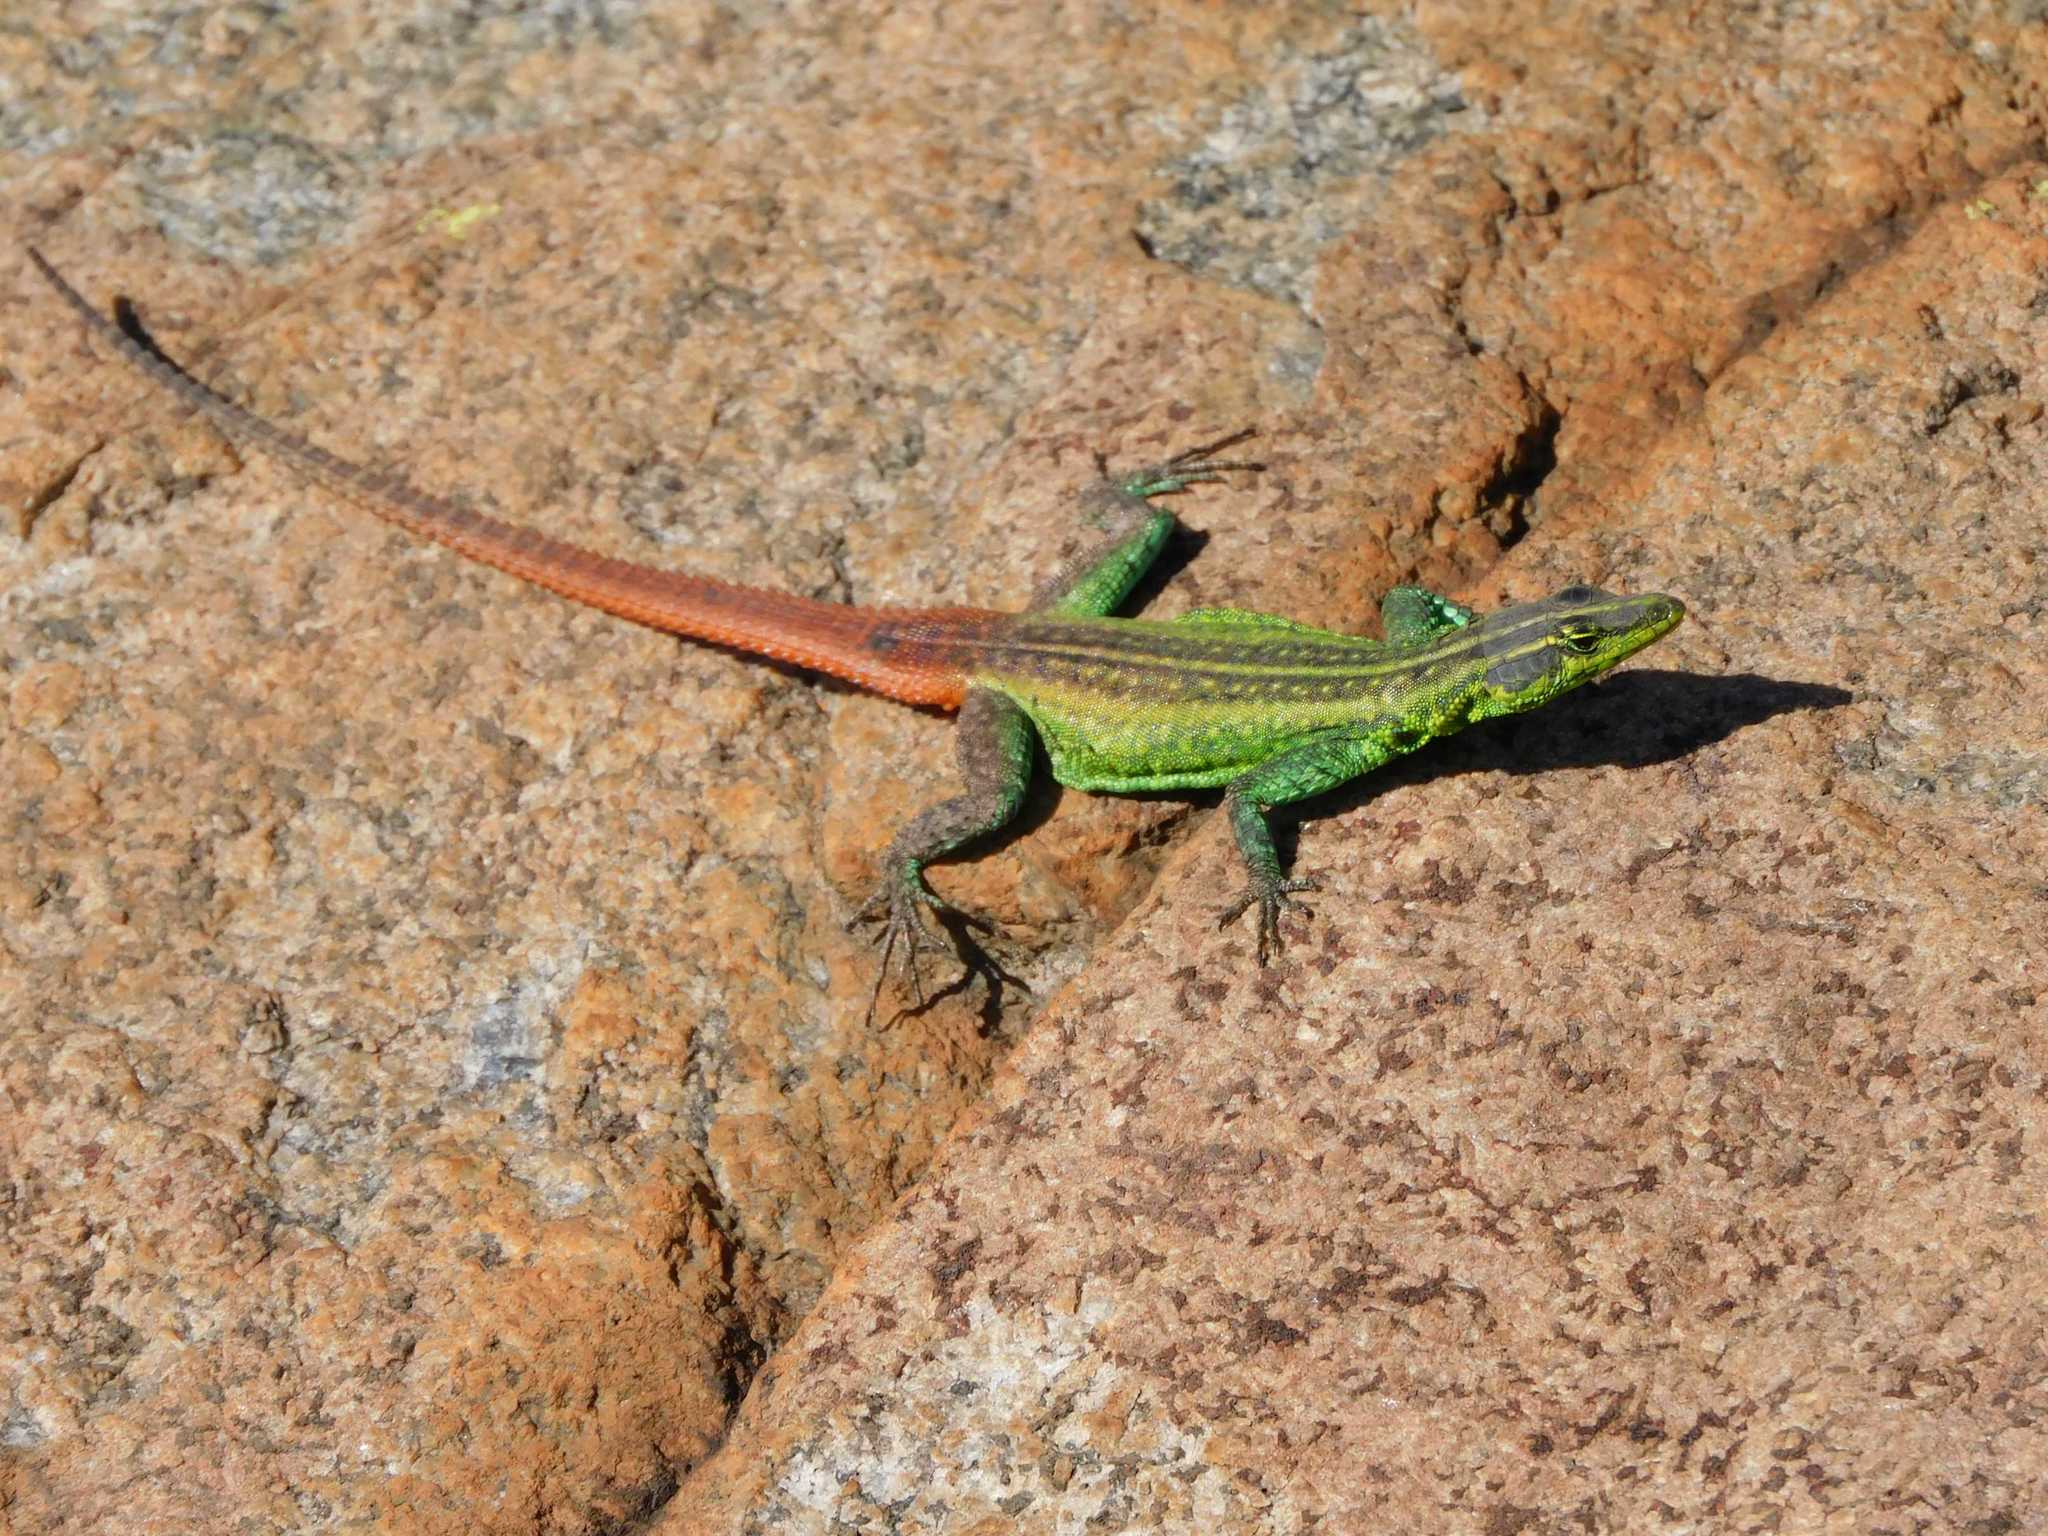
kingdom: Animalia
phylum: Chordata
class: Squamata
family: Cordylidae
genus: Platysaurus
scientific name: Platysaurus orientalis
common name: Sekhukune flat lizard
